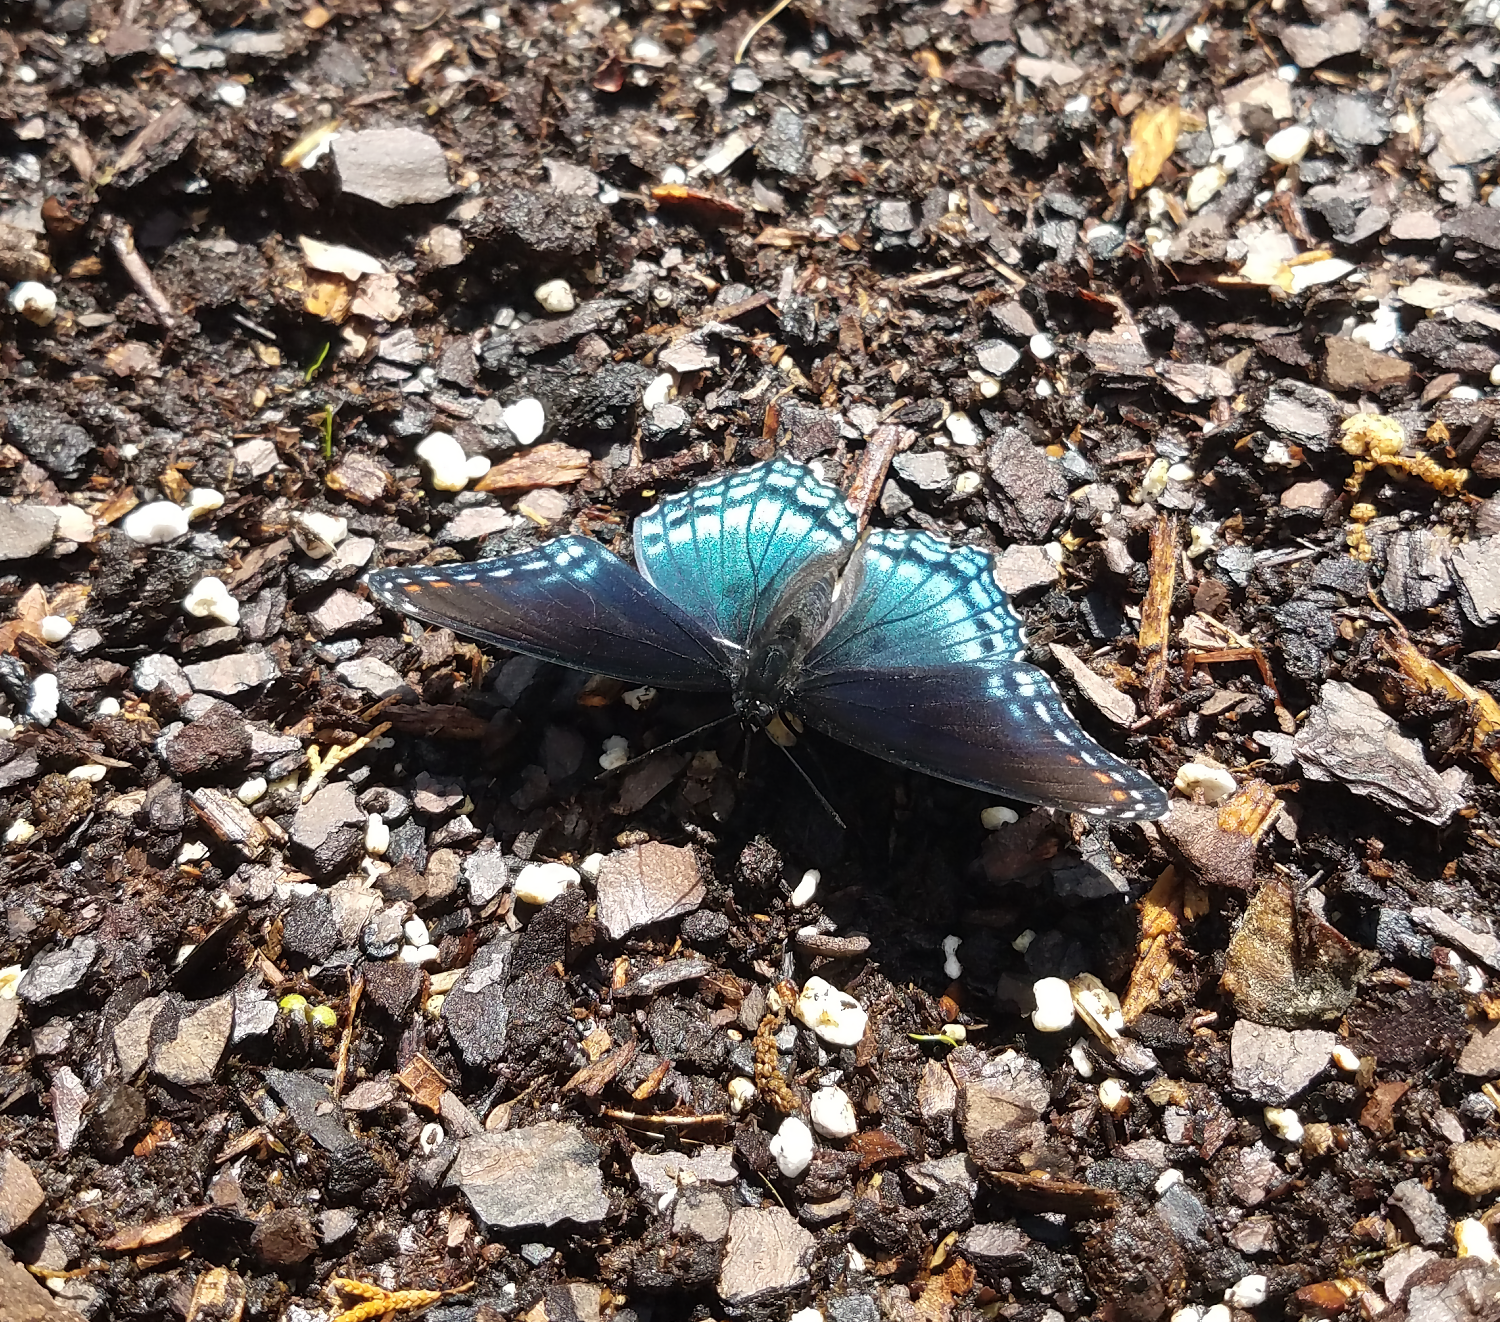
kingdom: Animalia
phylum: Arthropoda
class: Insecta
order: Lepidoptera
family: Nymphalidae
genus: Limenitis
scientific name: Limenitis astyanax
